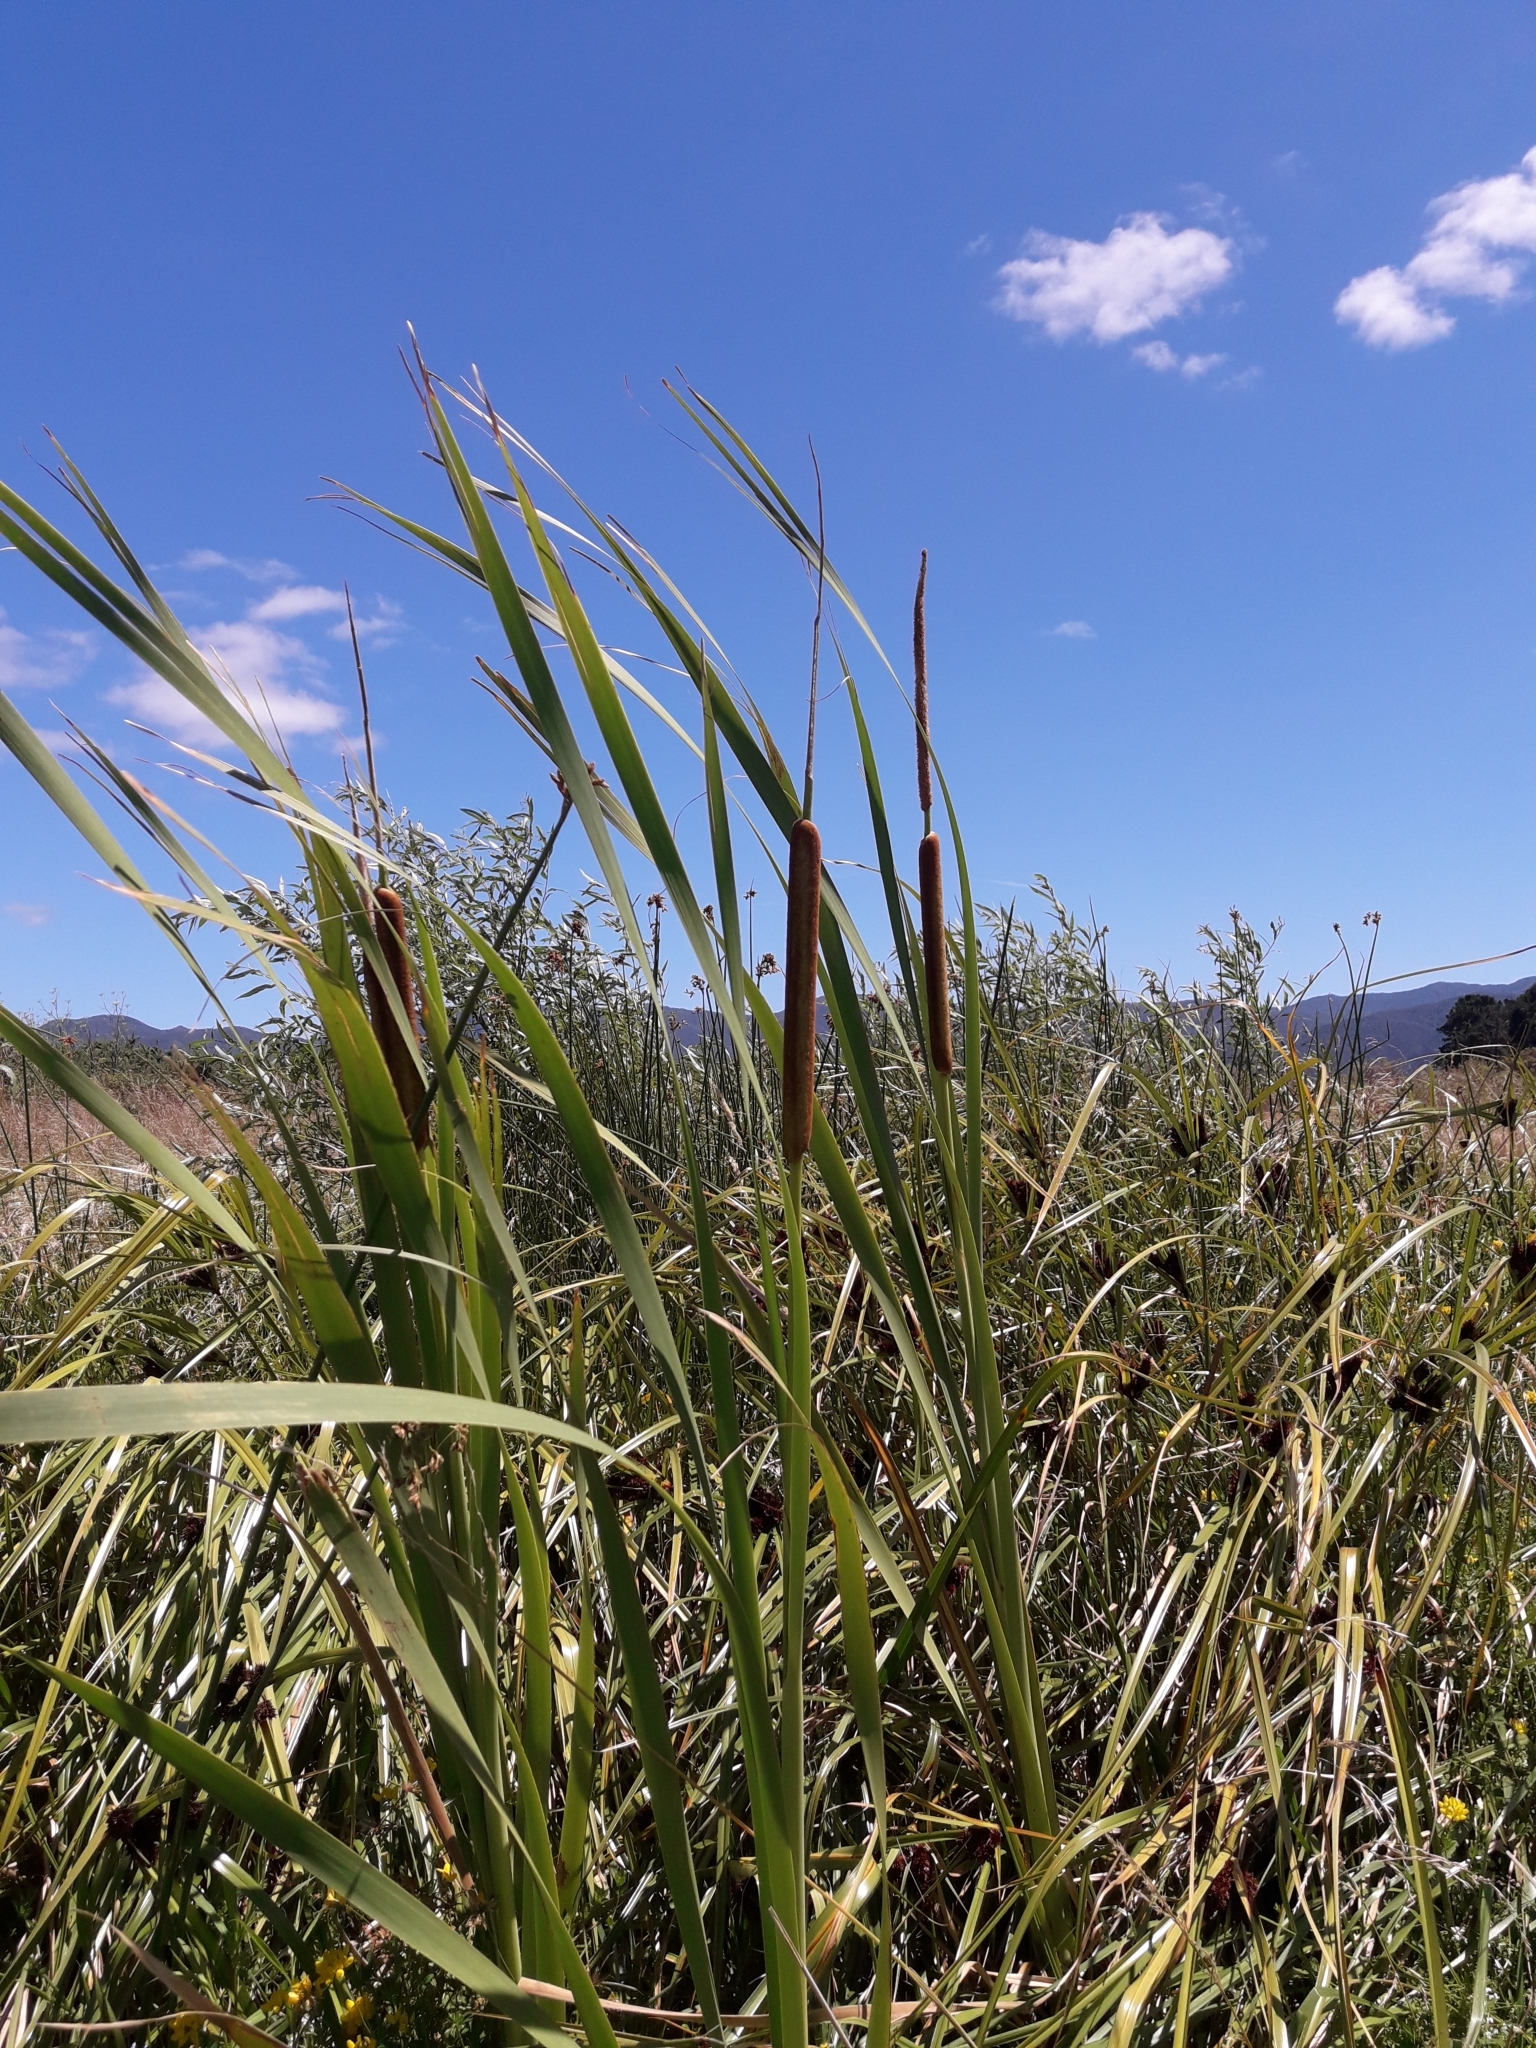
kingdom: Plantae
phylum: Tracheophyta
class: Liliopsida
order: Poales
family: Typhaceae
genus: Typha
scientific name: Typha orientalis
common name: Bullrush
